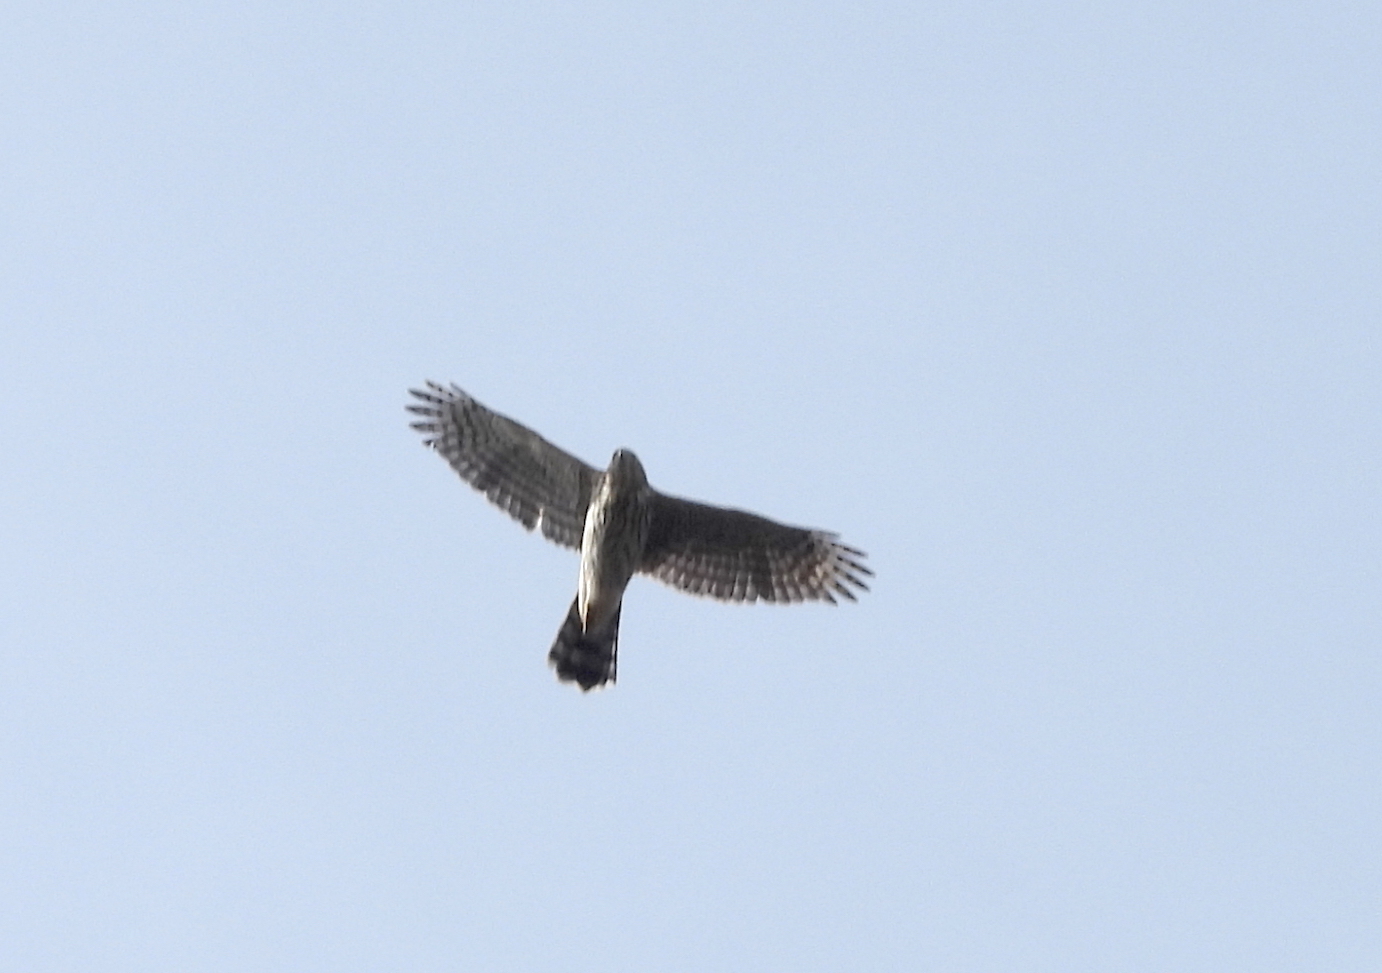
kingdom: Animalia
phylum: Chordata
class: Aves
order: Accipitriformes
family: Accipitridae
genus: Accipiter
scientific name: Accipiter cooperii
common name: Cooper's hawk
